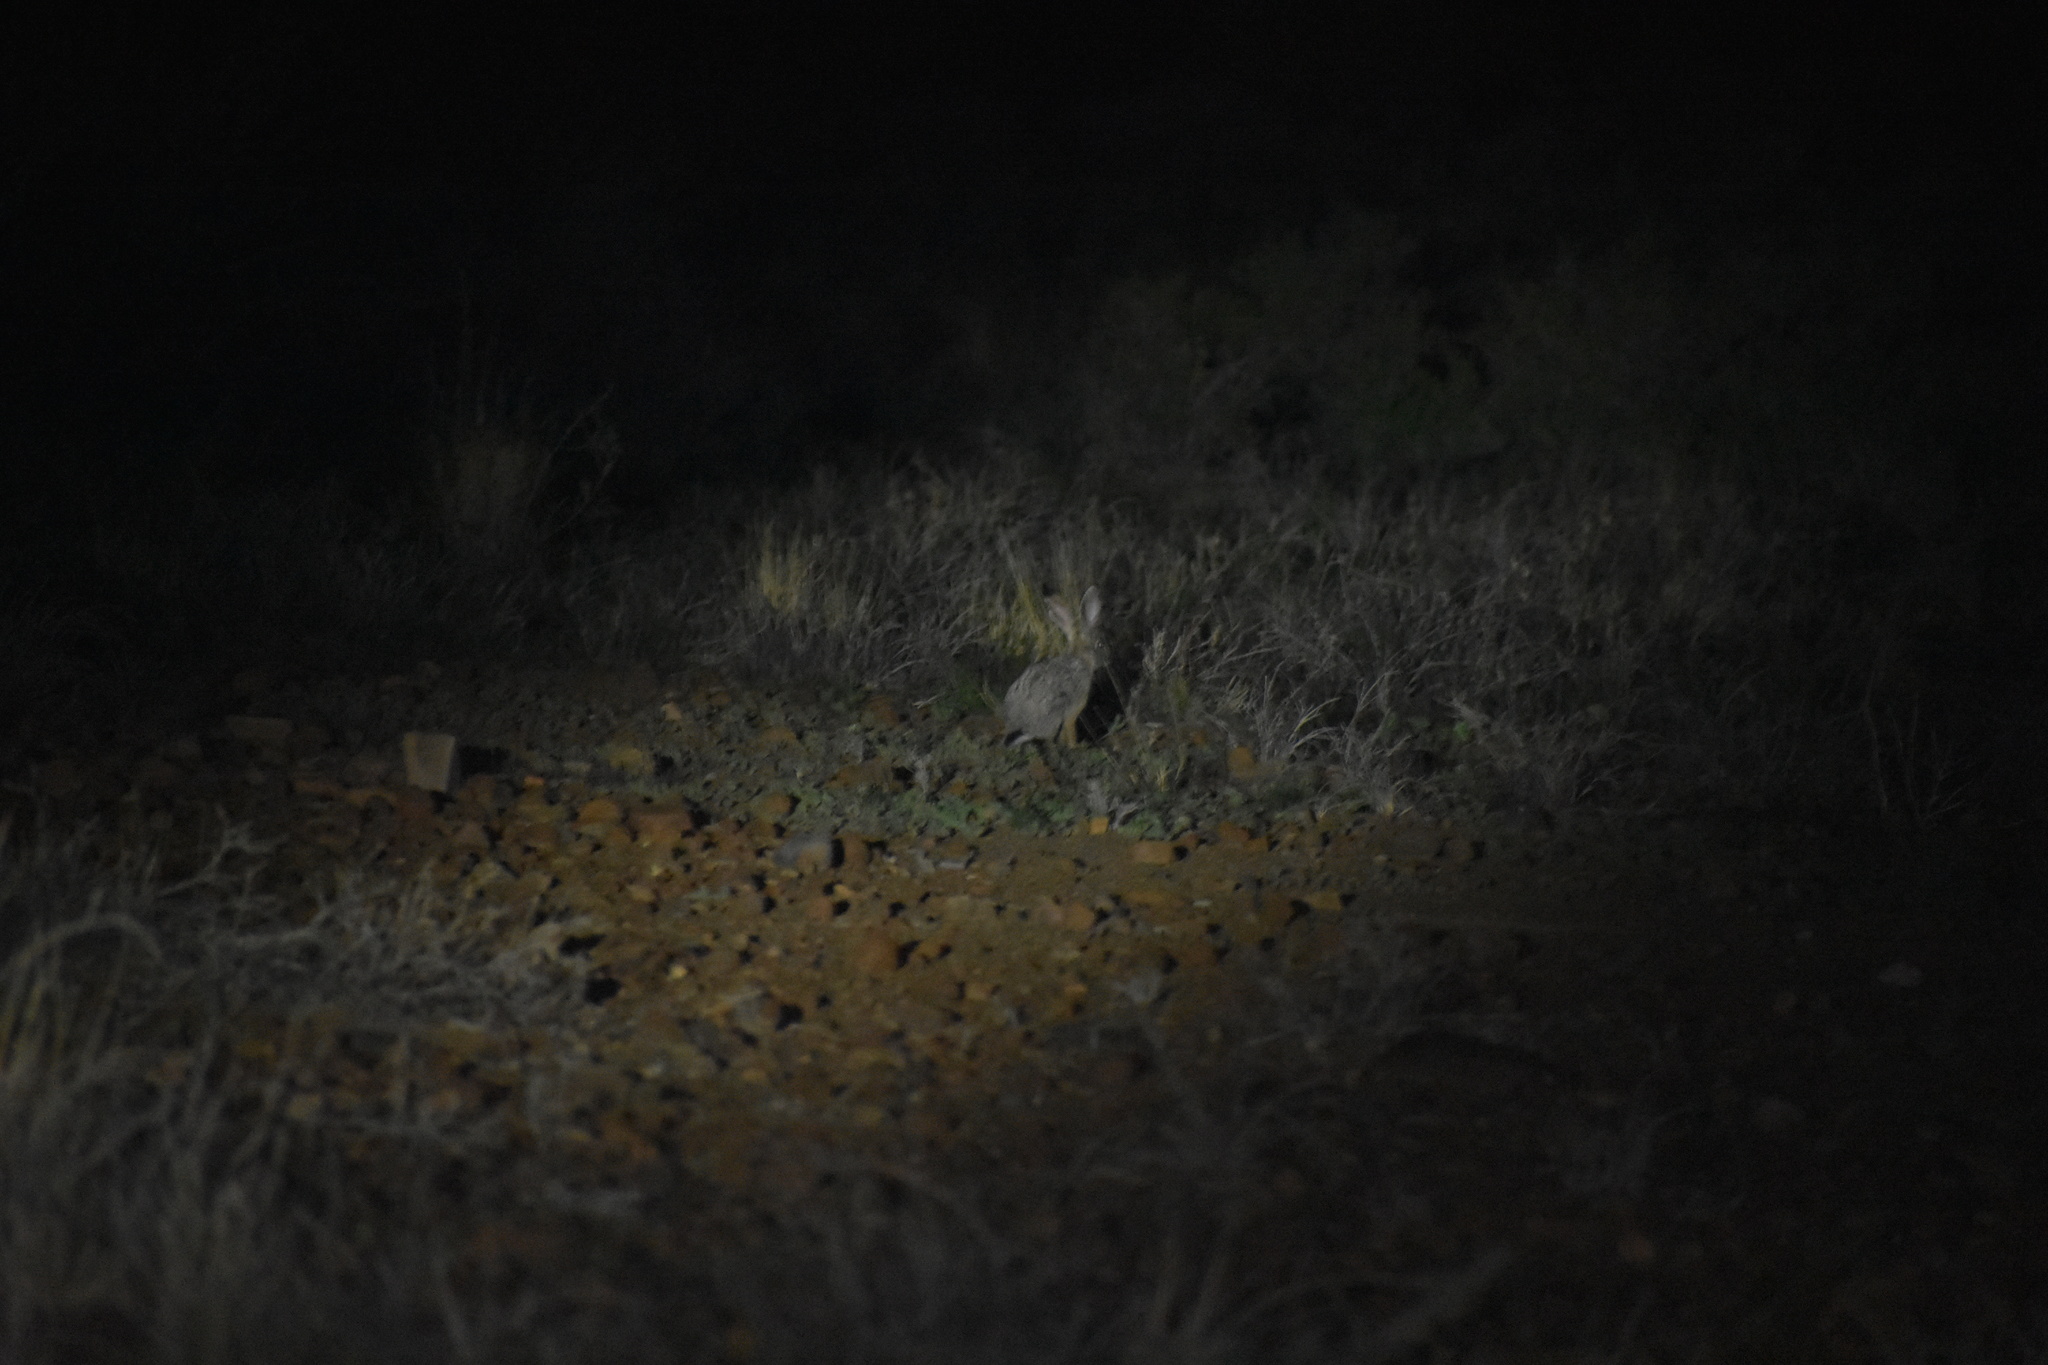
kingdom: Animalia
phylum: Chordata
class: Mammalia
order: Lagomorpha
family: Leporidae
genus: Lepus
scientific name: Lepus capensis
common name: Cape hare
